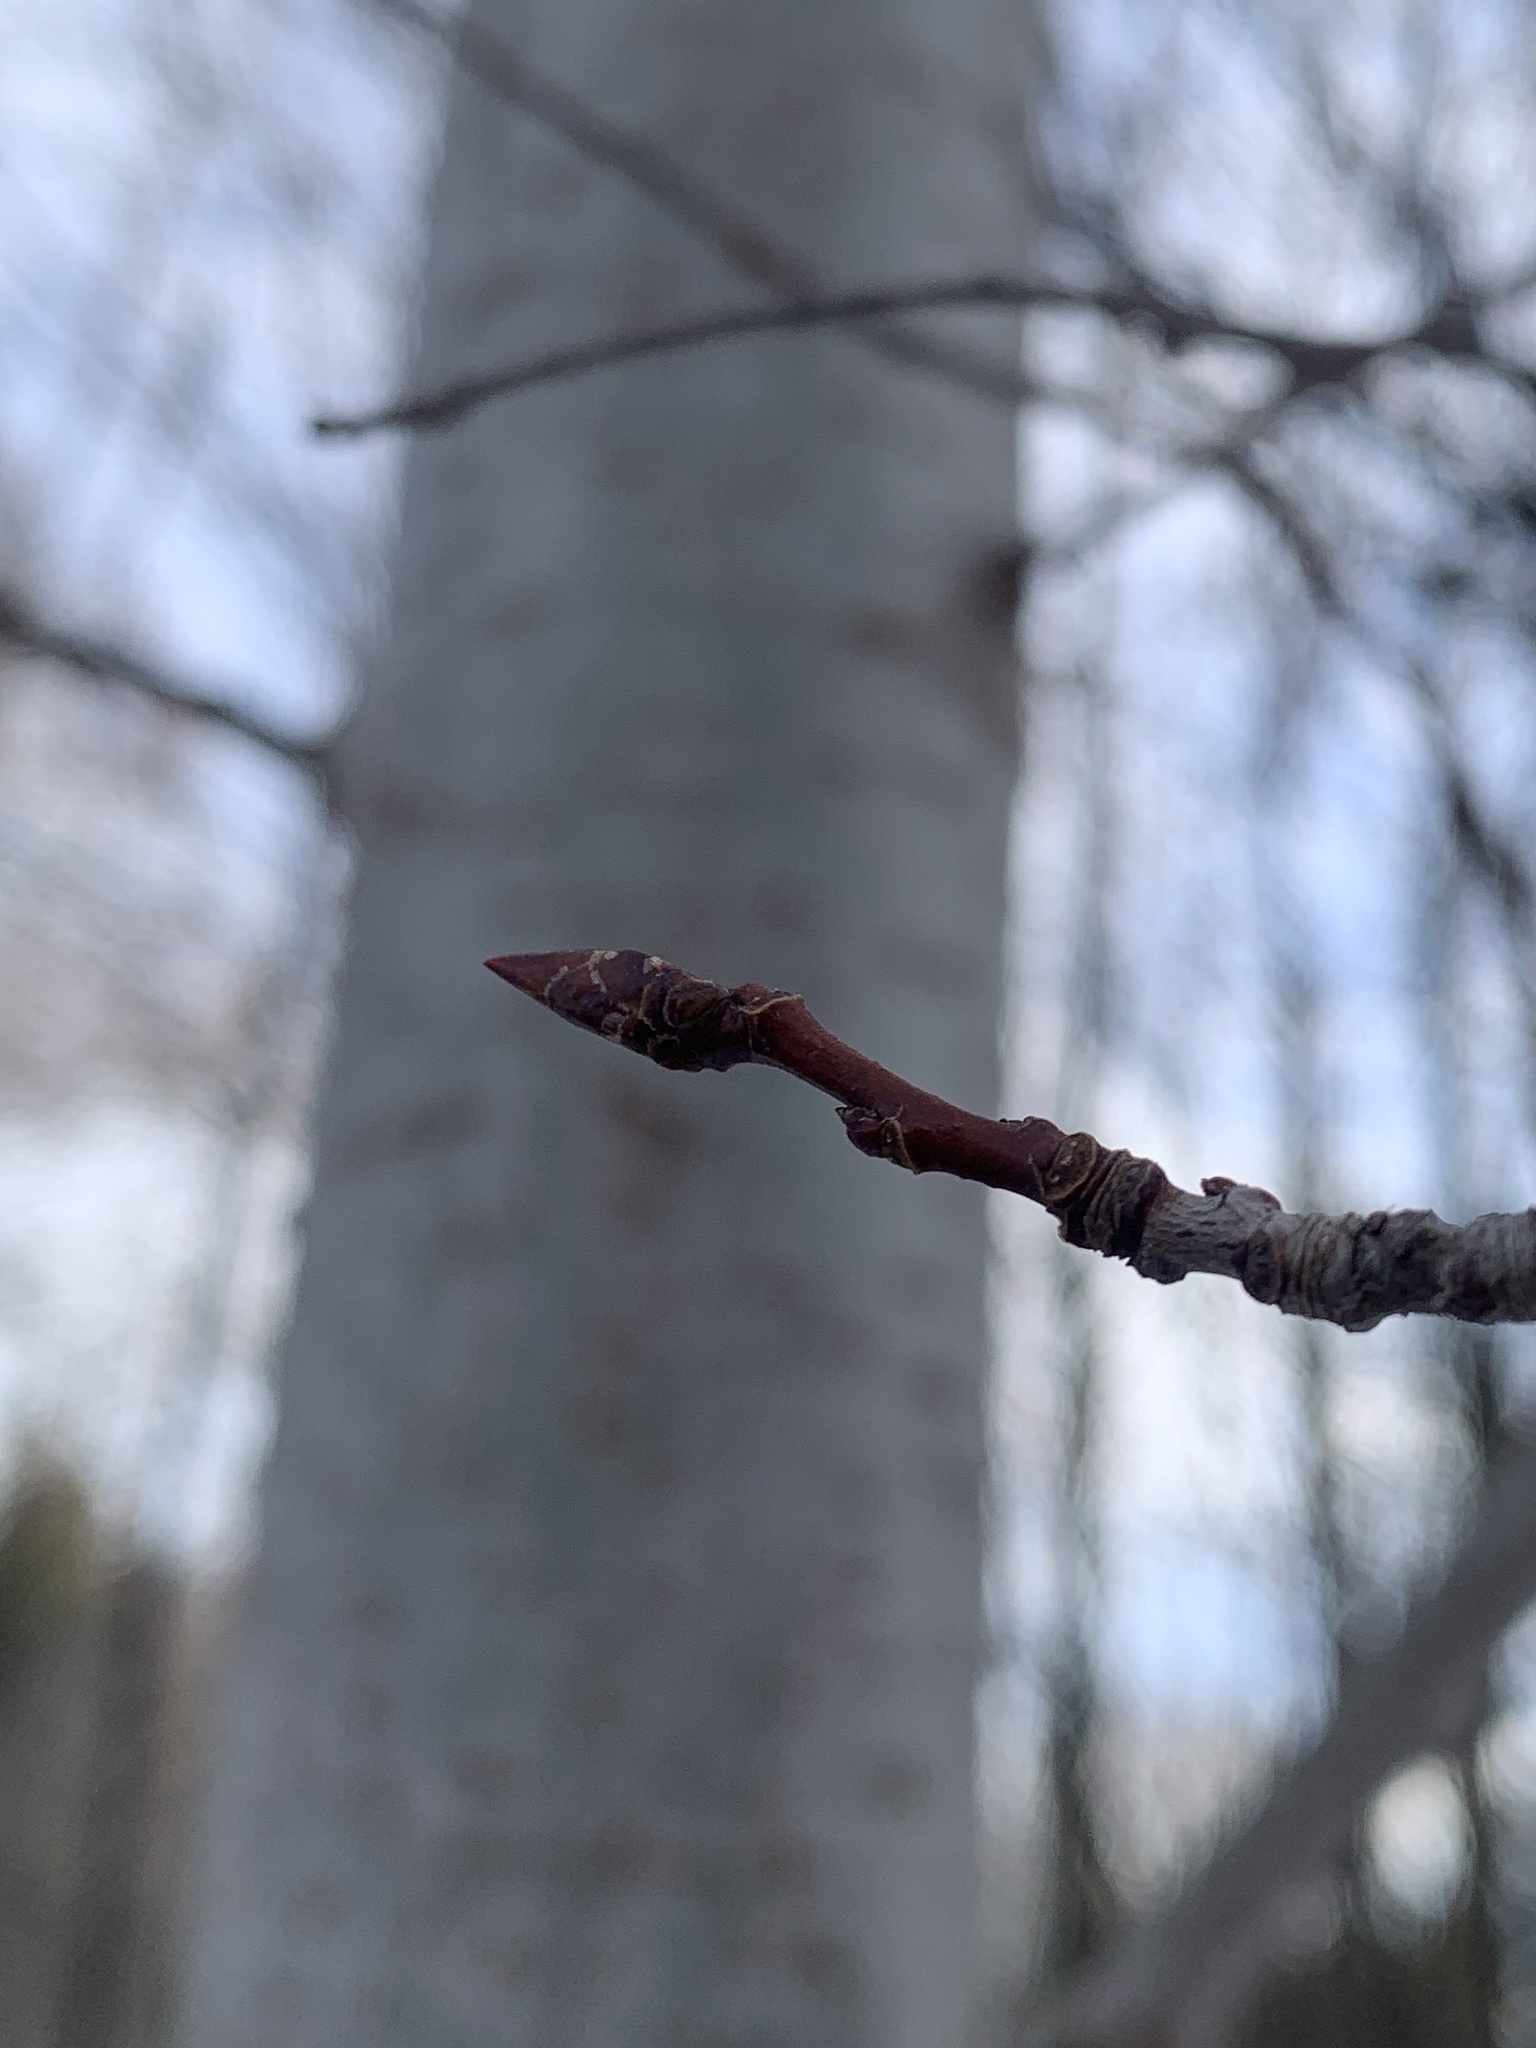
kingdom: Plantae
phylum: Tracheophyta
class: Magnoliopsida
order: Malpighiales
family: Salicaceae
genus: Populus
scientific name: Populus tremuloides
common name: Quaking aspen
